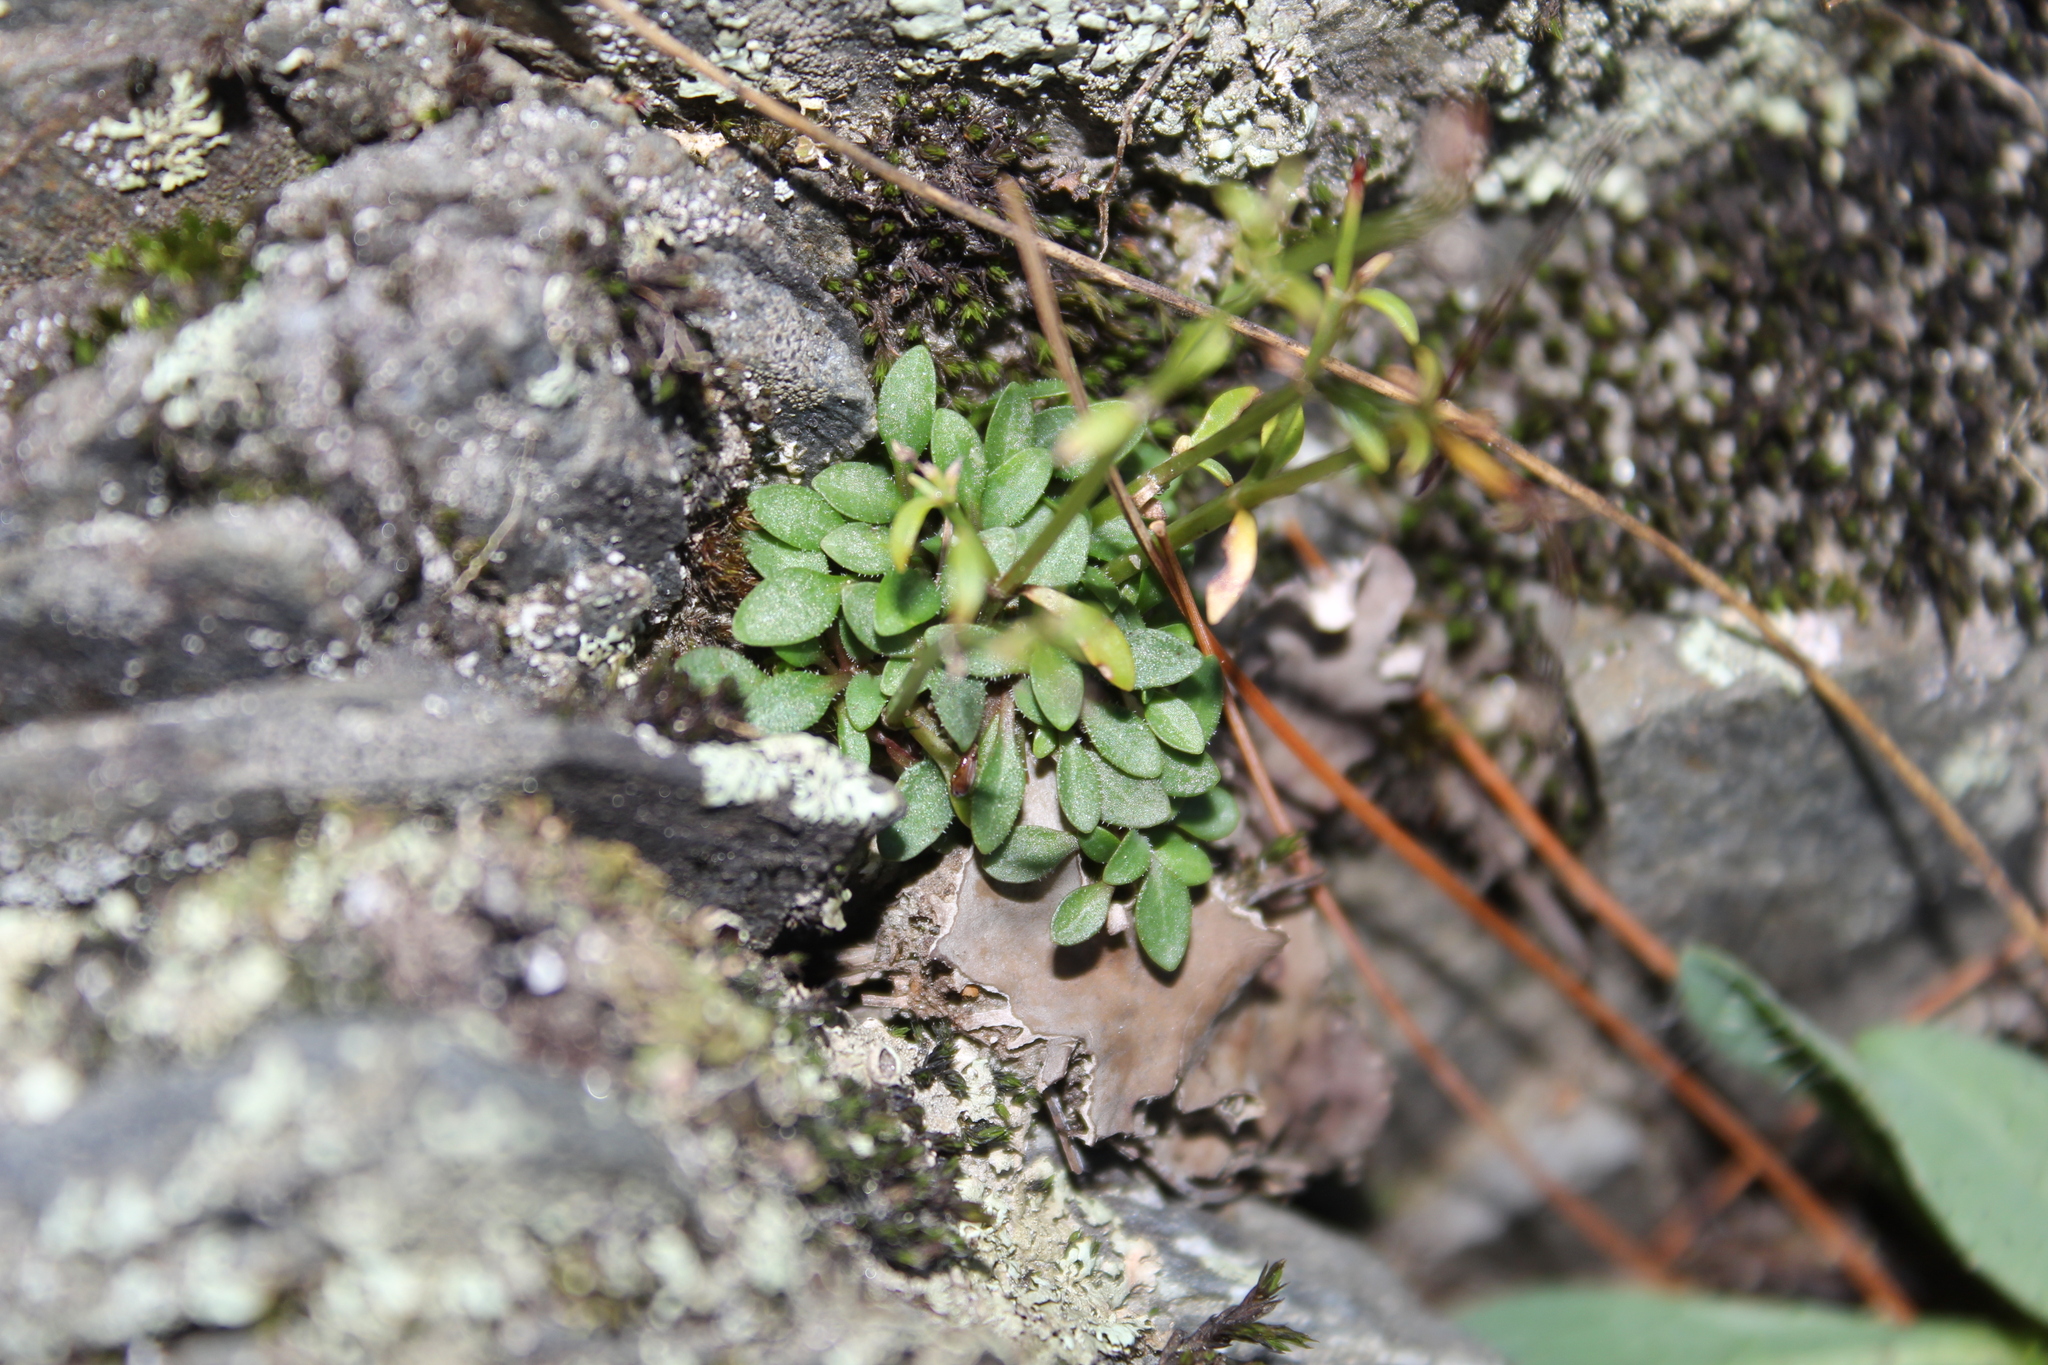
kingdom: Plantae
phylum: Tracheophyta
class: Magnoliopsida
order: Gentianales
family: Rubiaceae
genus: Houstonia
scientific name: Houstonia caerulea
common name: Bluets
